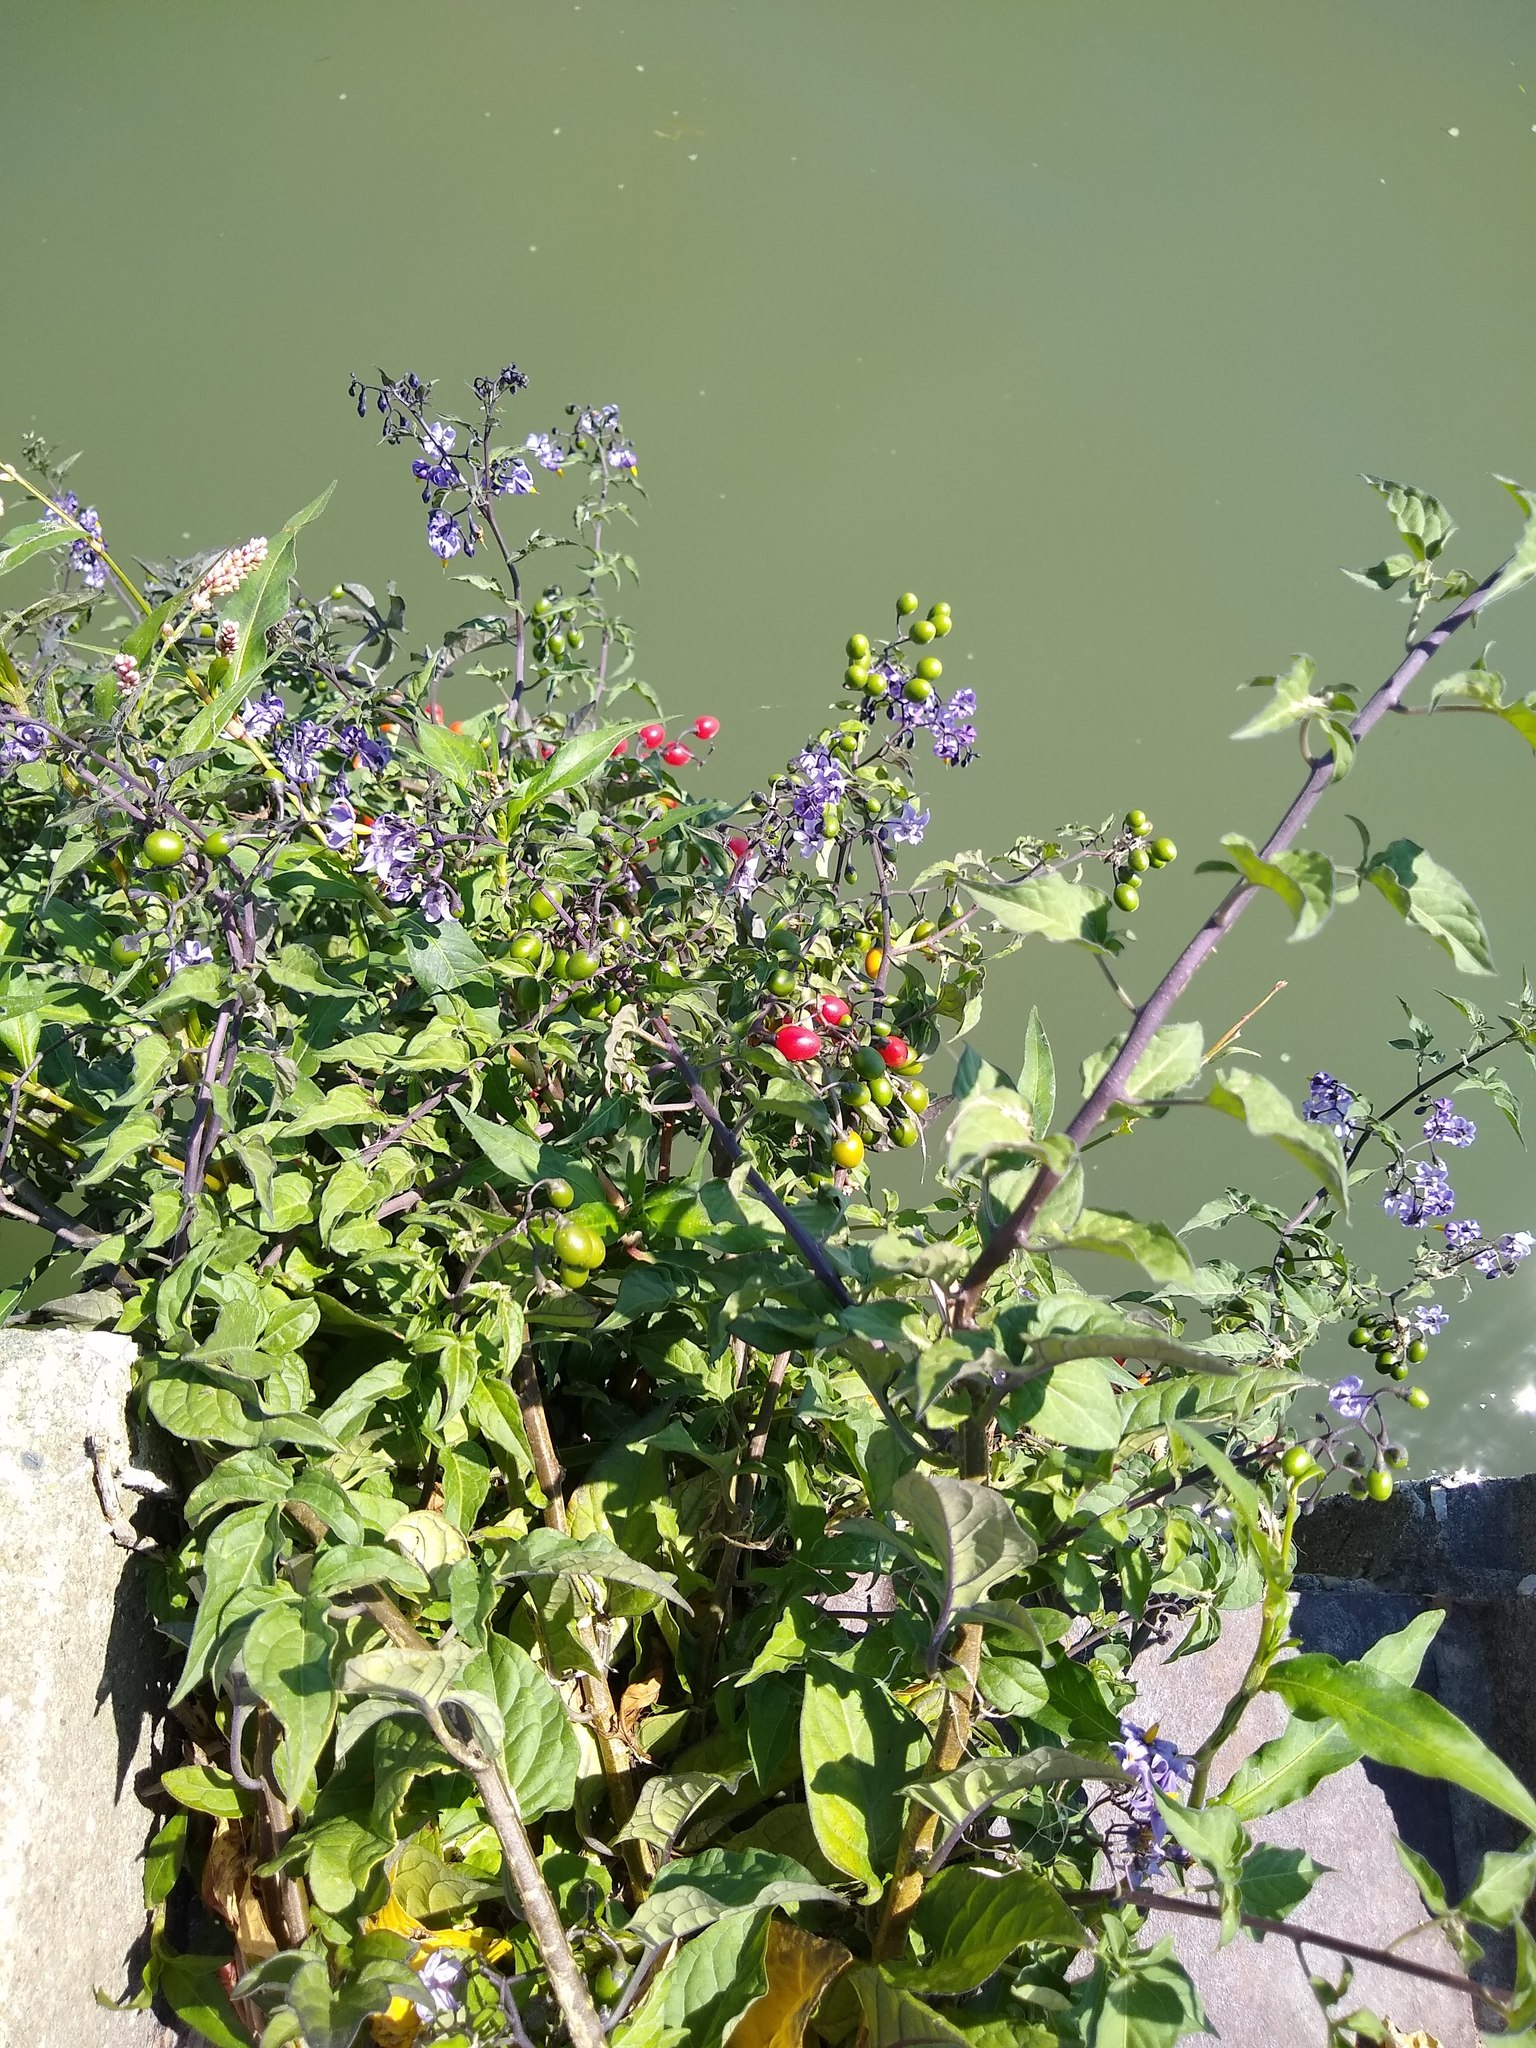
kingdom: Plantae
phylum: Tracheophyta
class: Magnoliopsida
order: Solanales
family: Solanaceae
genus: Solanum
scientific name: Solanum dulcamara
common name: Climbing nightshade
